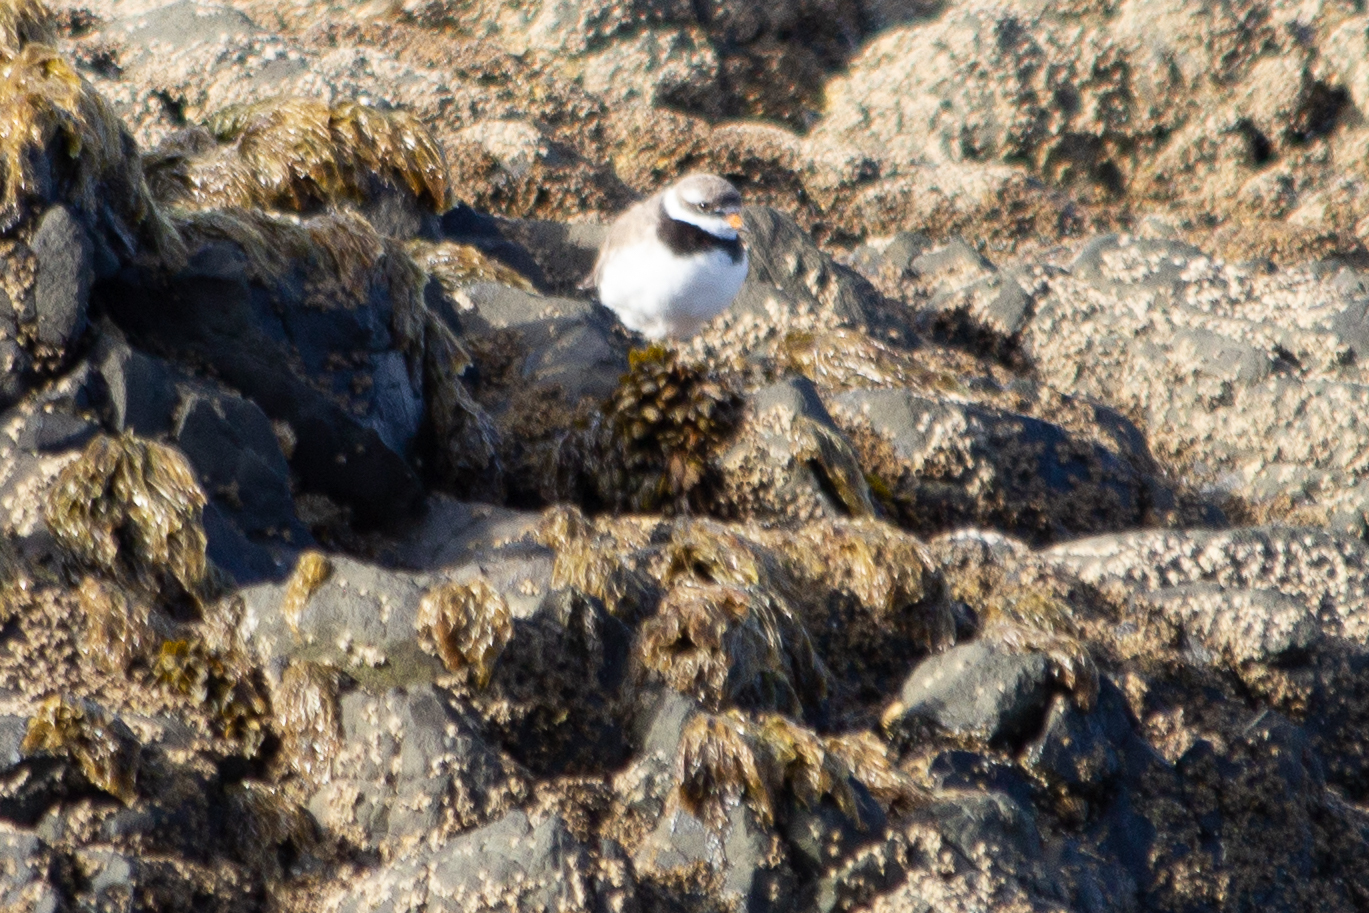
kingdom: Animalia
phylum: Chordata
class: Aves
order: Charadriiformes
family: Charadriidae
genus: Charadrius
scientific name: Charadrius hiaticula
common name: Common ringed plover
